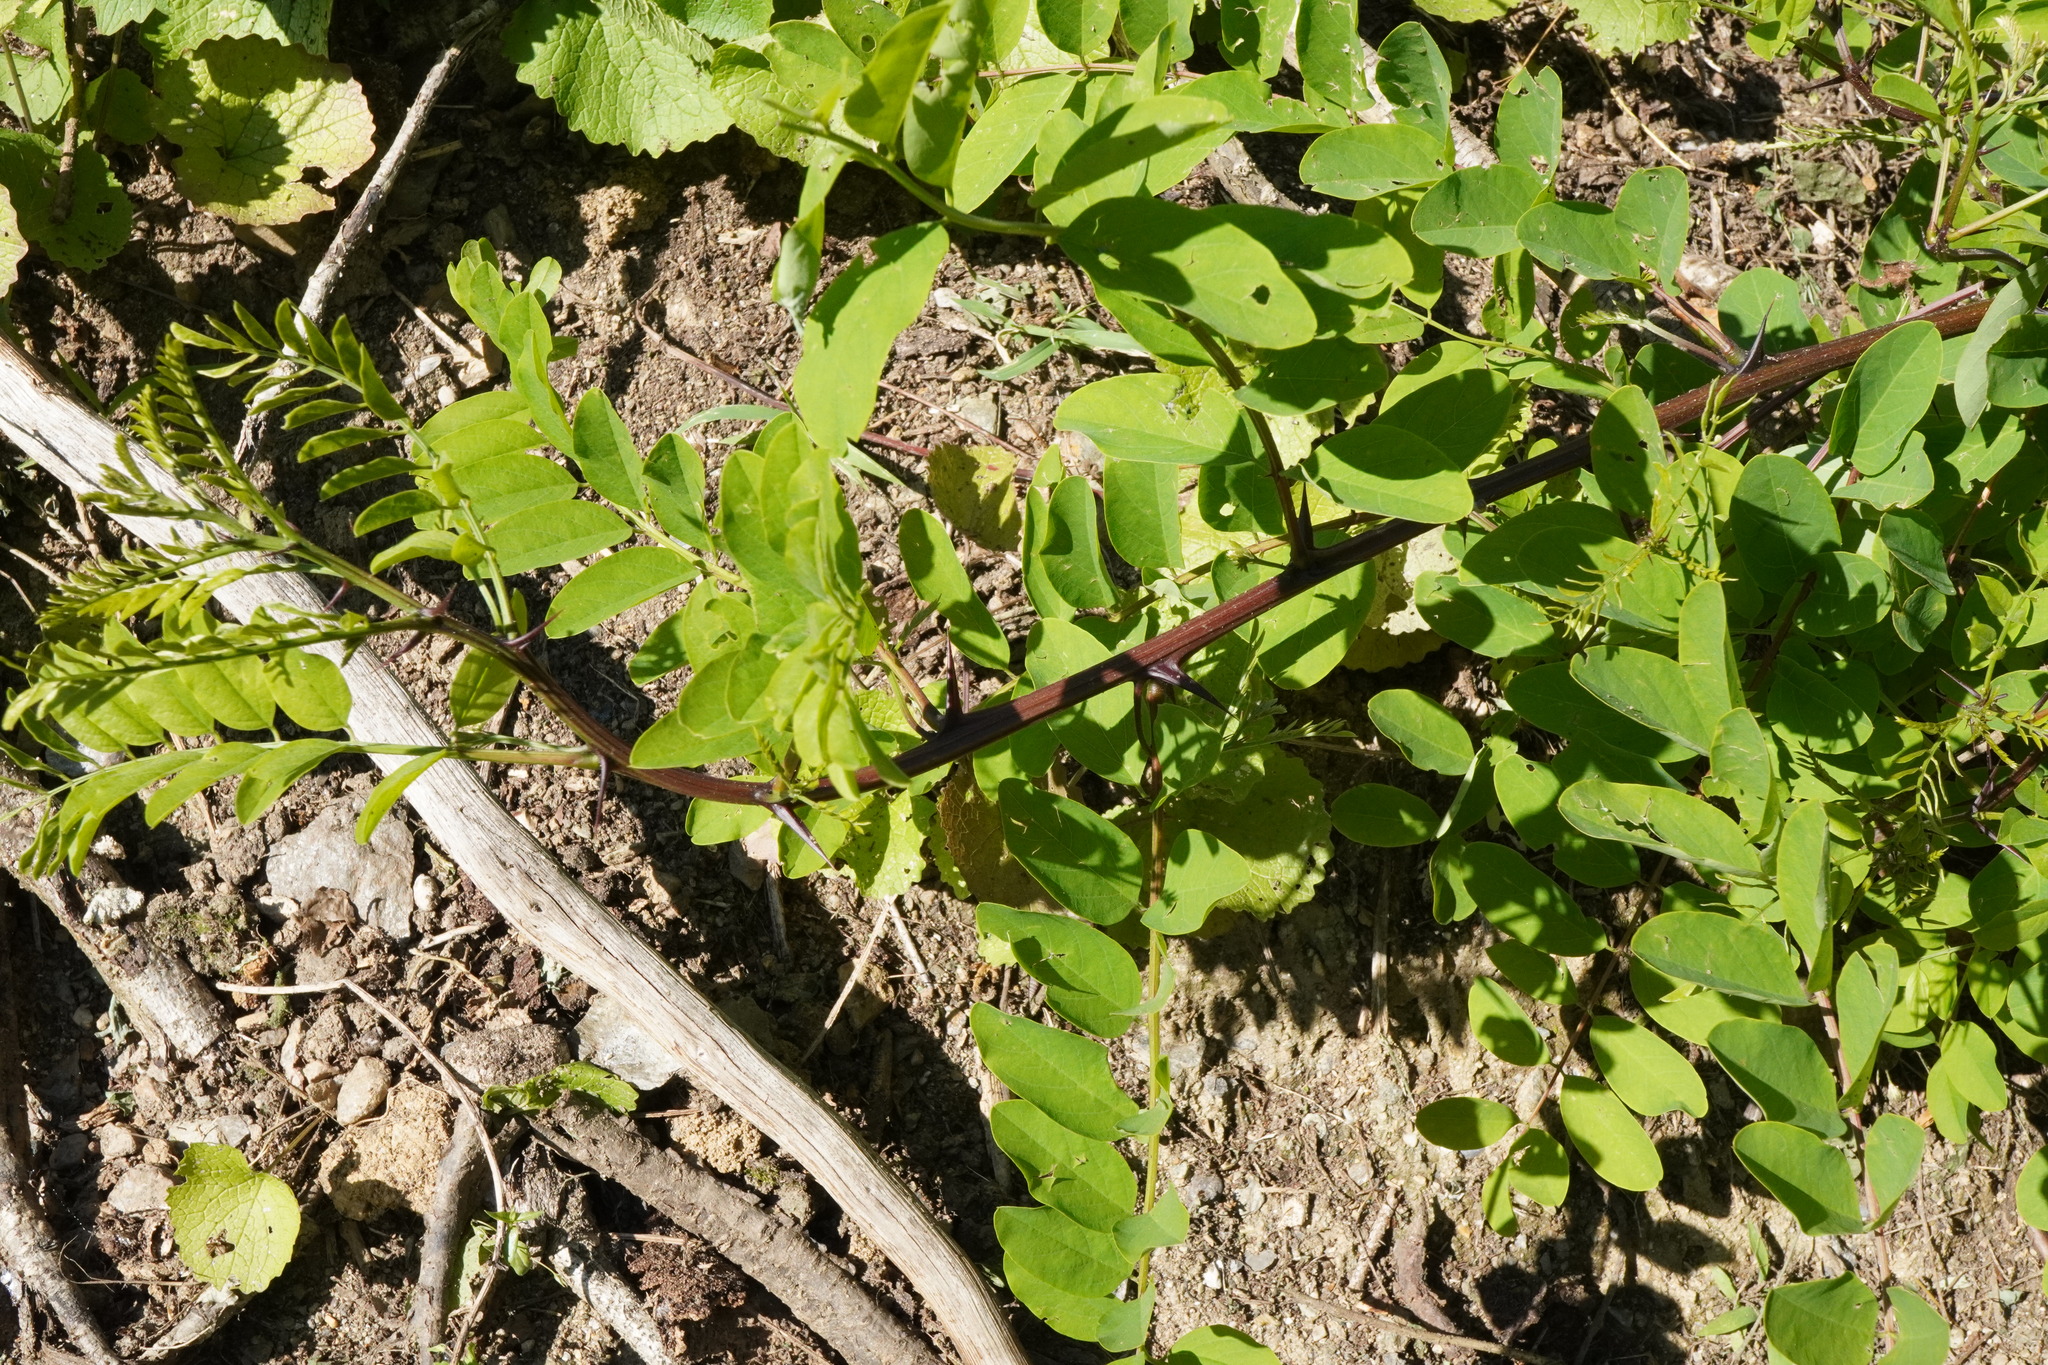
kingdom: Plantae
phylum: Tracheophyta
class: Magnoliopsida
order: Fabales
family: Fabaceae
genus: Robinia
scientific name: Robinia pseudoacacia
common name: Black locust
